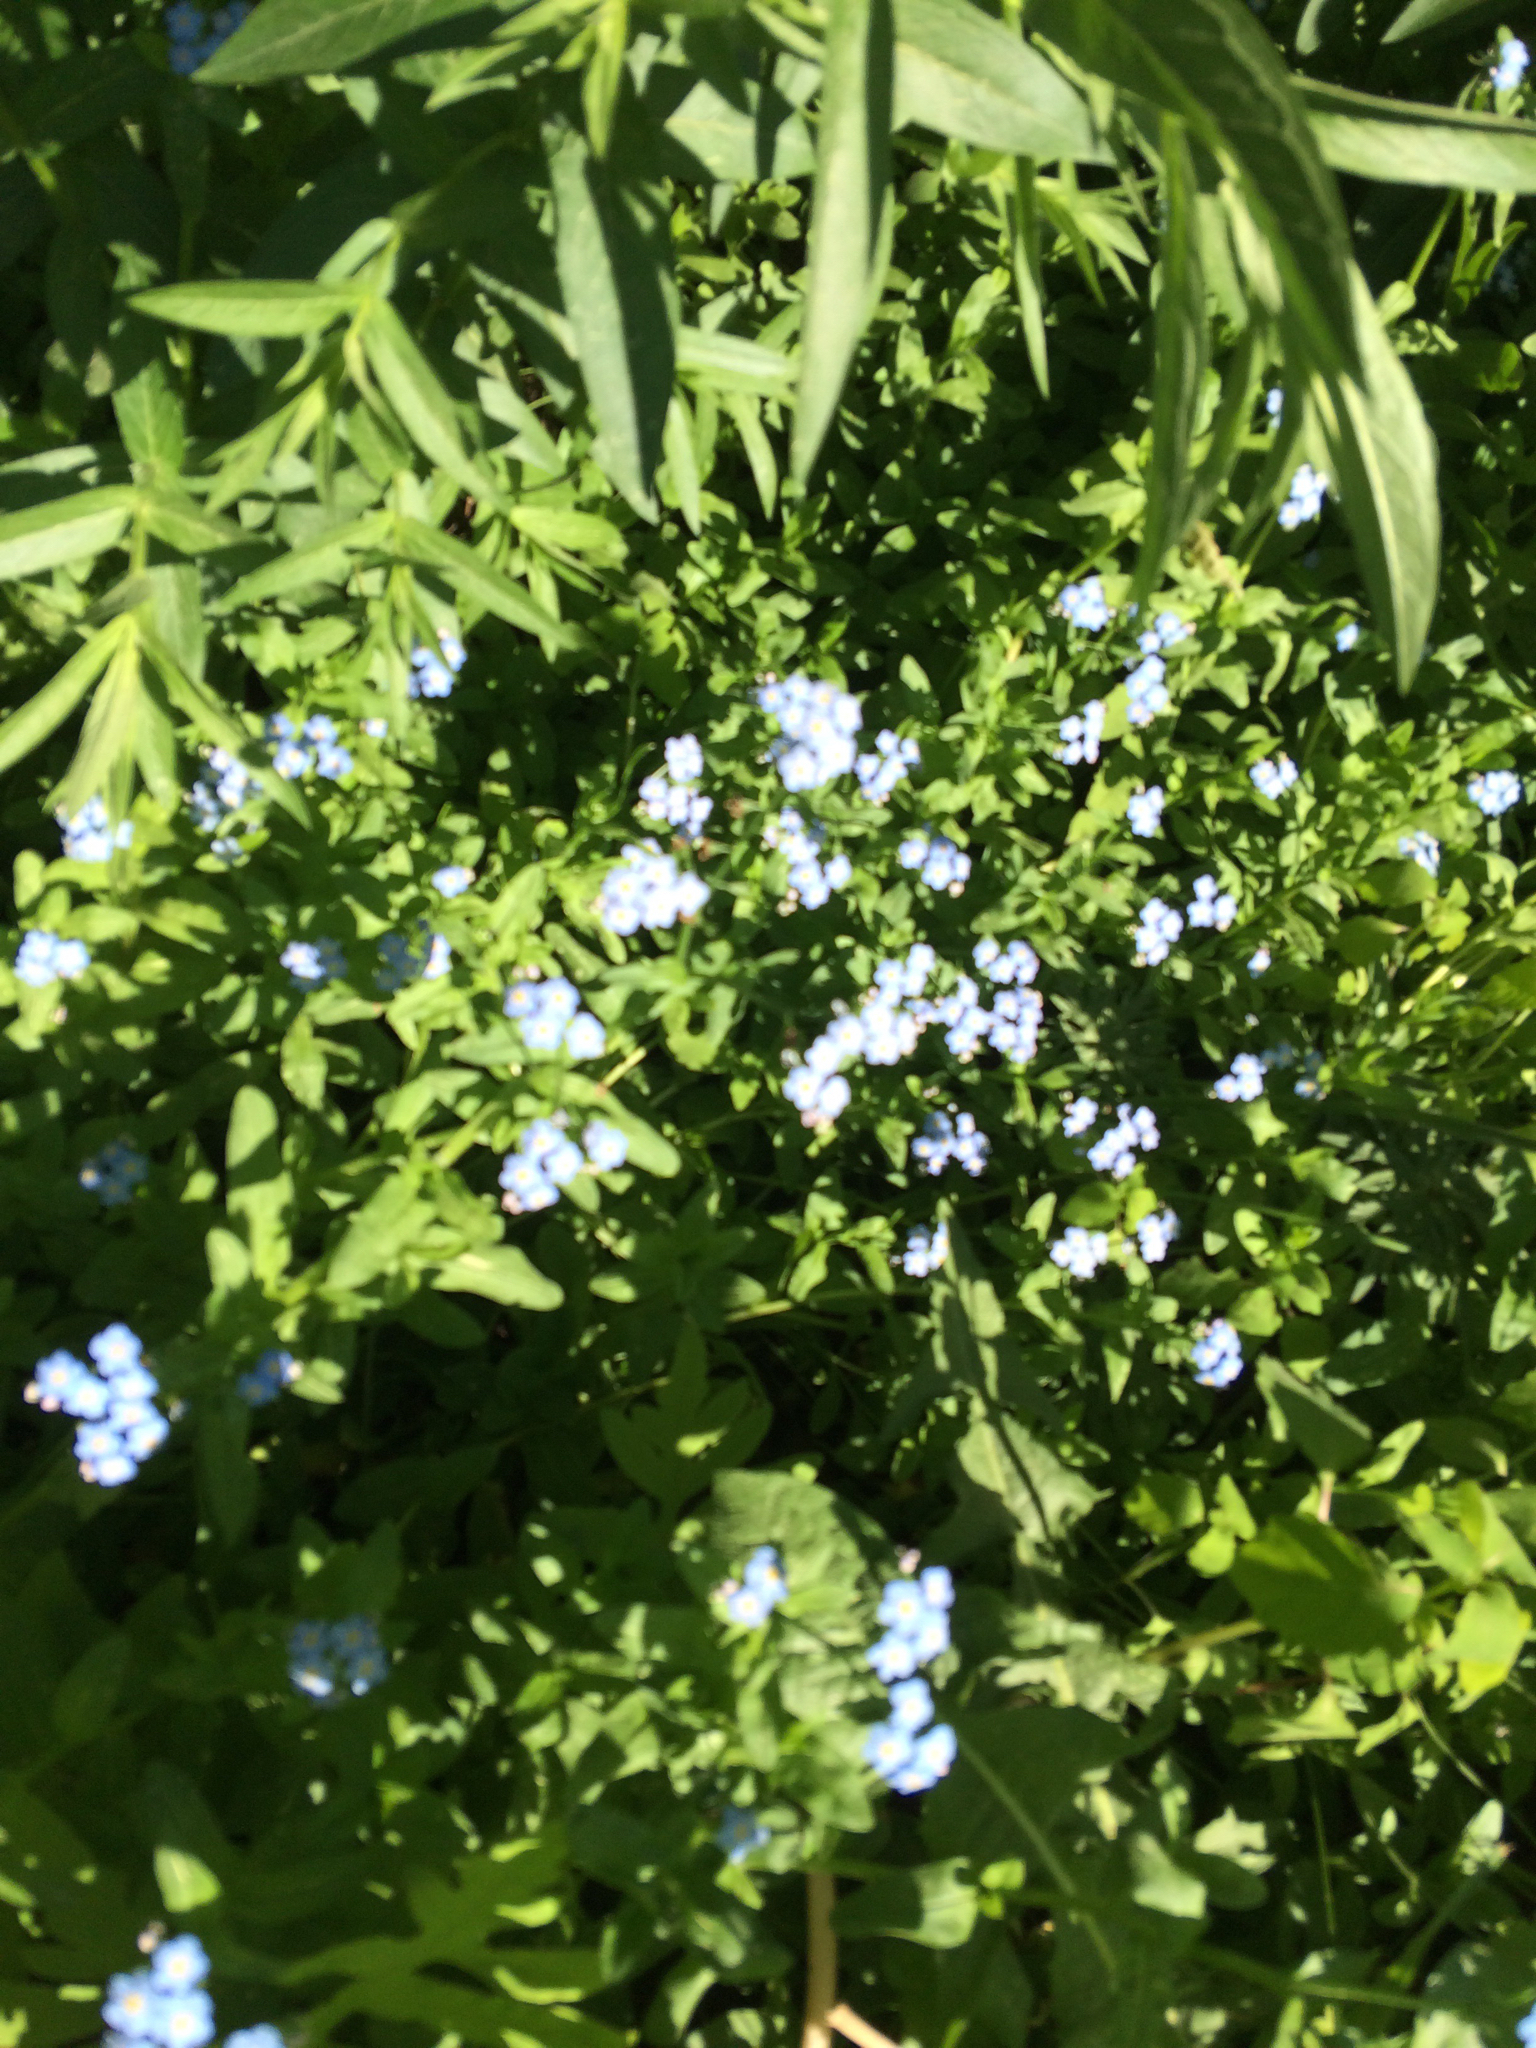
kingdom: Plantae
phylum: Tracheophyta
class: Magnoliopsida
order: Boraginales
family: Boraginaceae
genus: Myosotis
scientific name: Myosotis scorpioides
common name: Water forget-me-not
